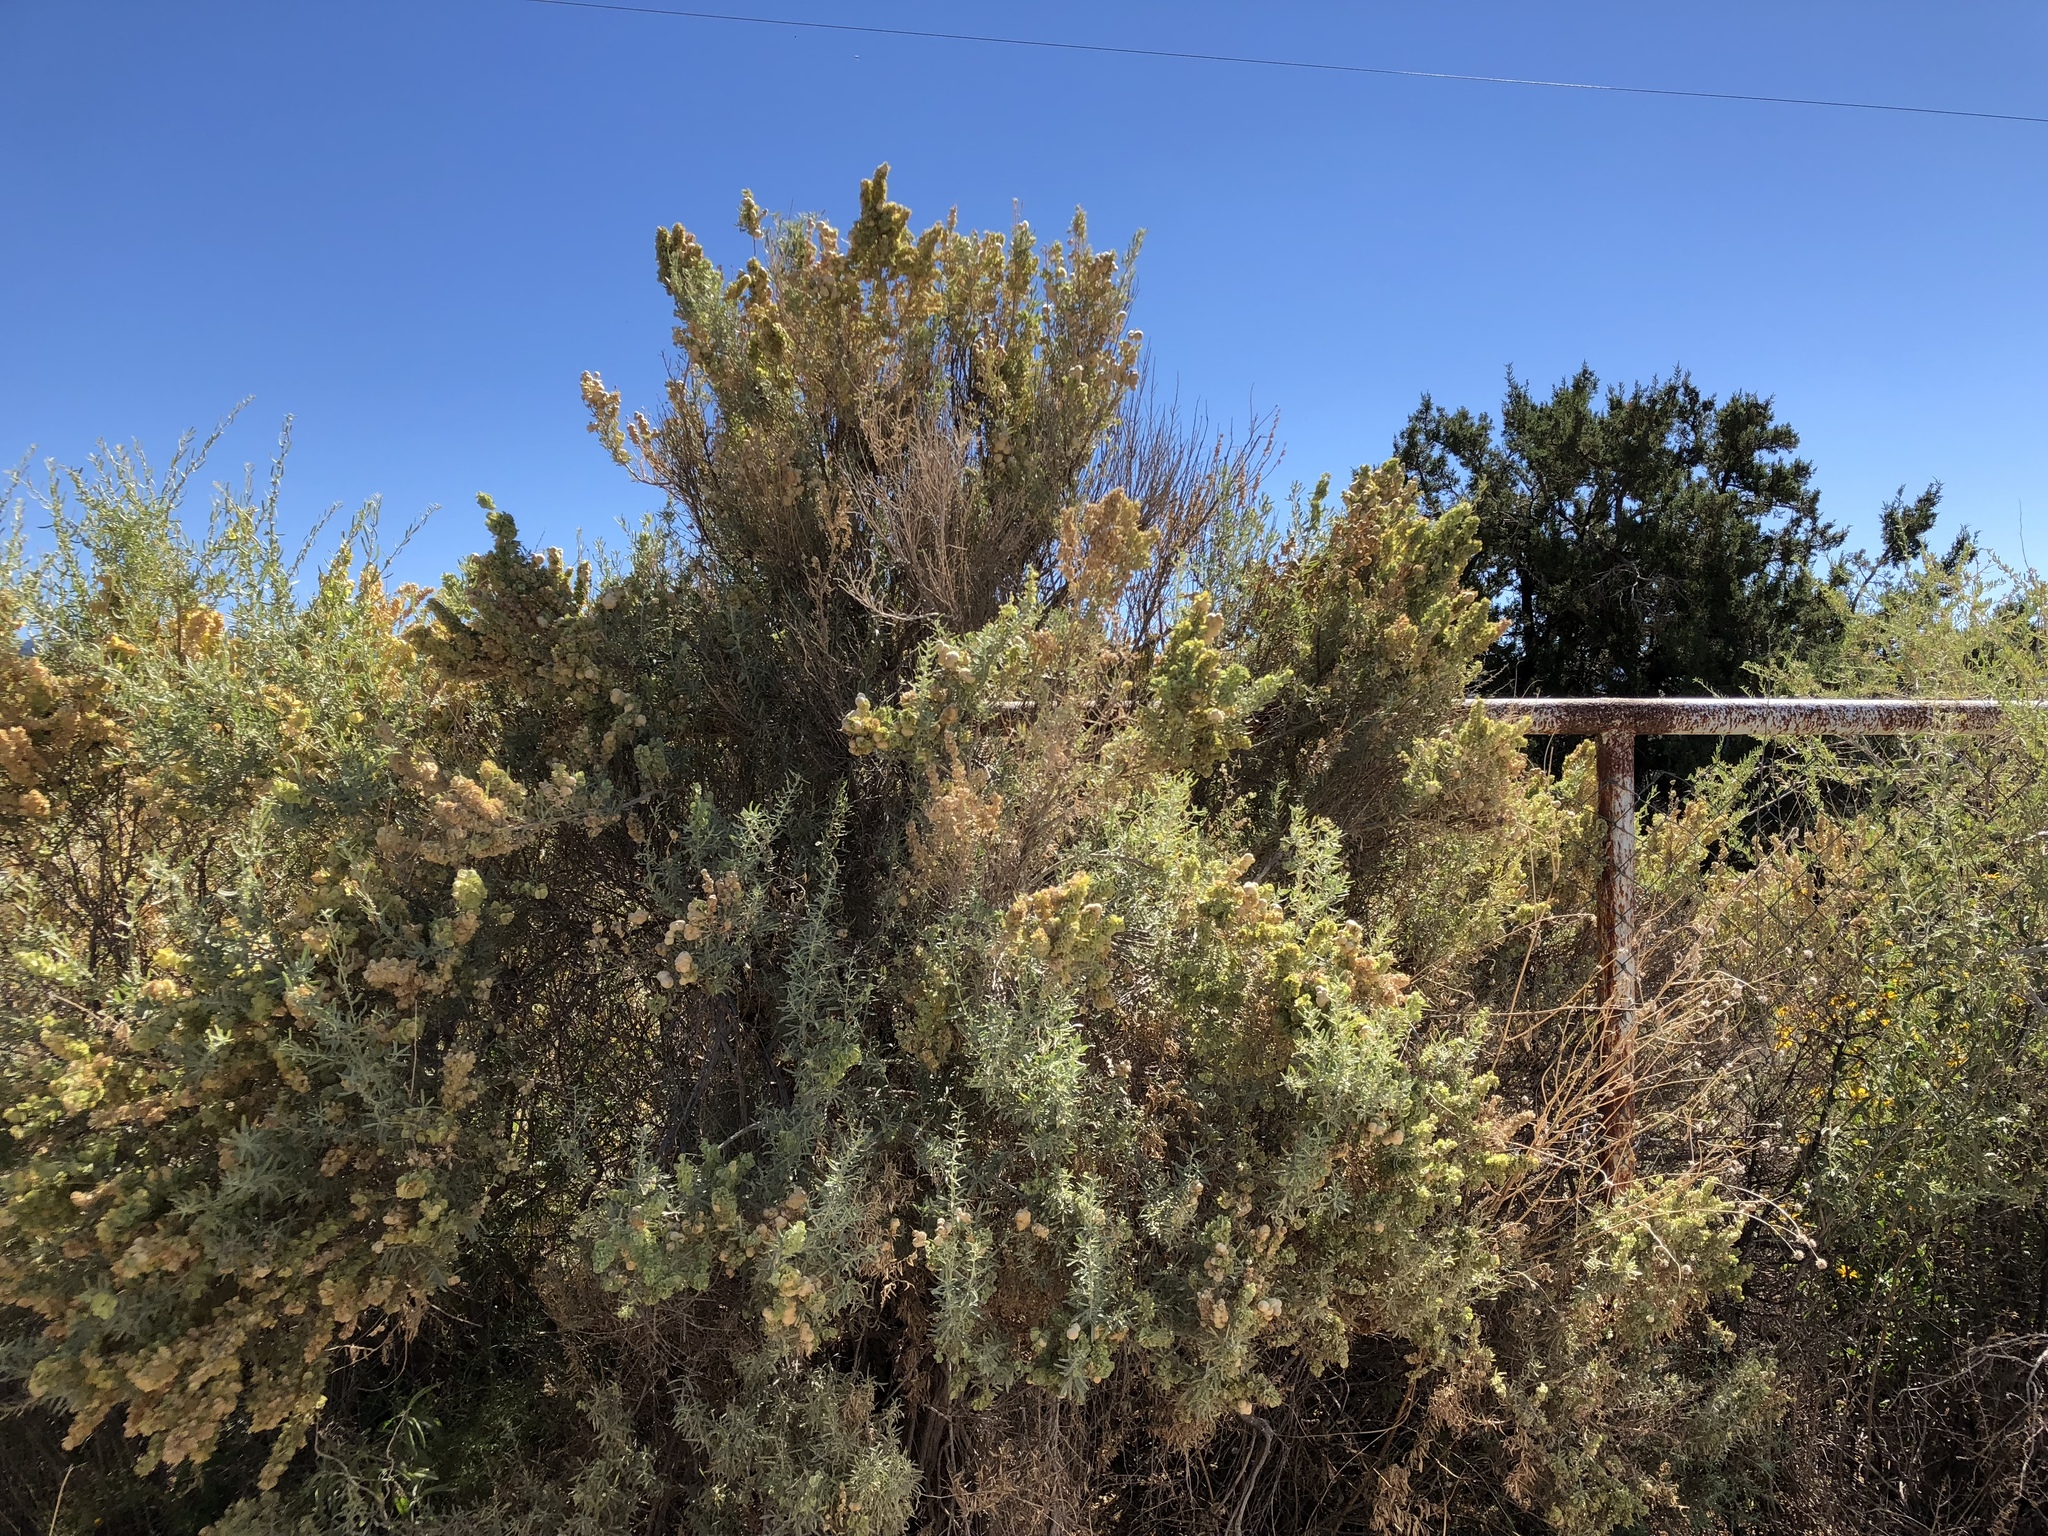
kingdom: Plantae
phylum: Tracheophyta
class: Magnoliopsida
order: Caryophyllales
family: Amaranthaceae
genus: Atriplex
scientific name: Atriplex canescens
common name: Four-wing saltbush
